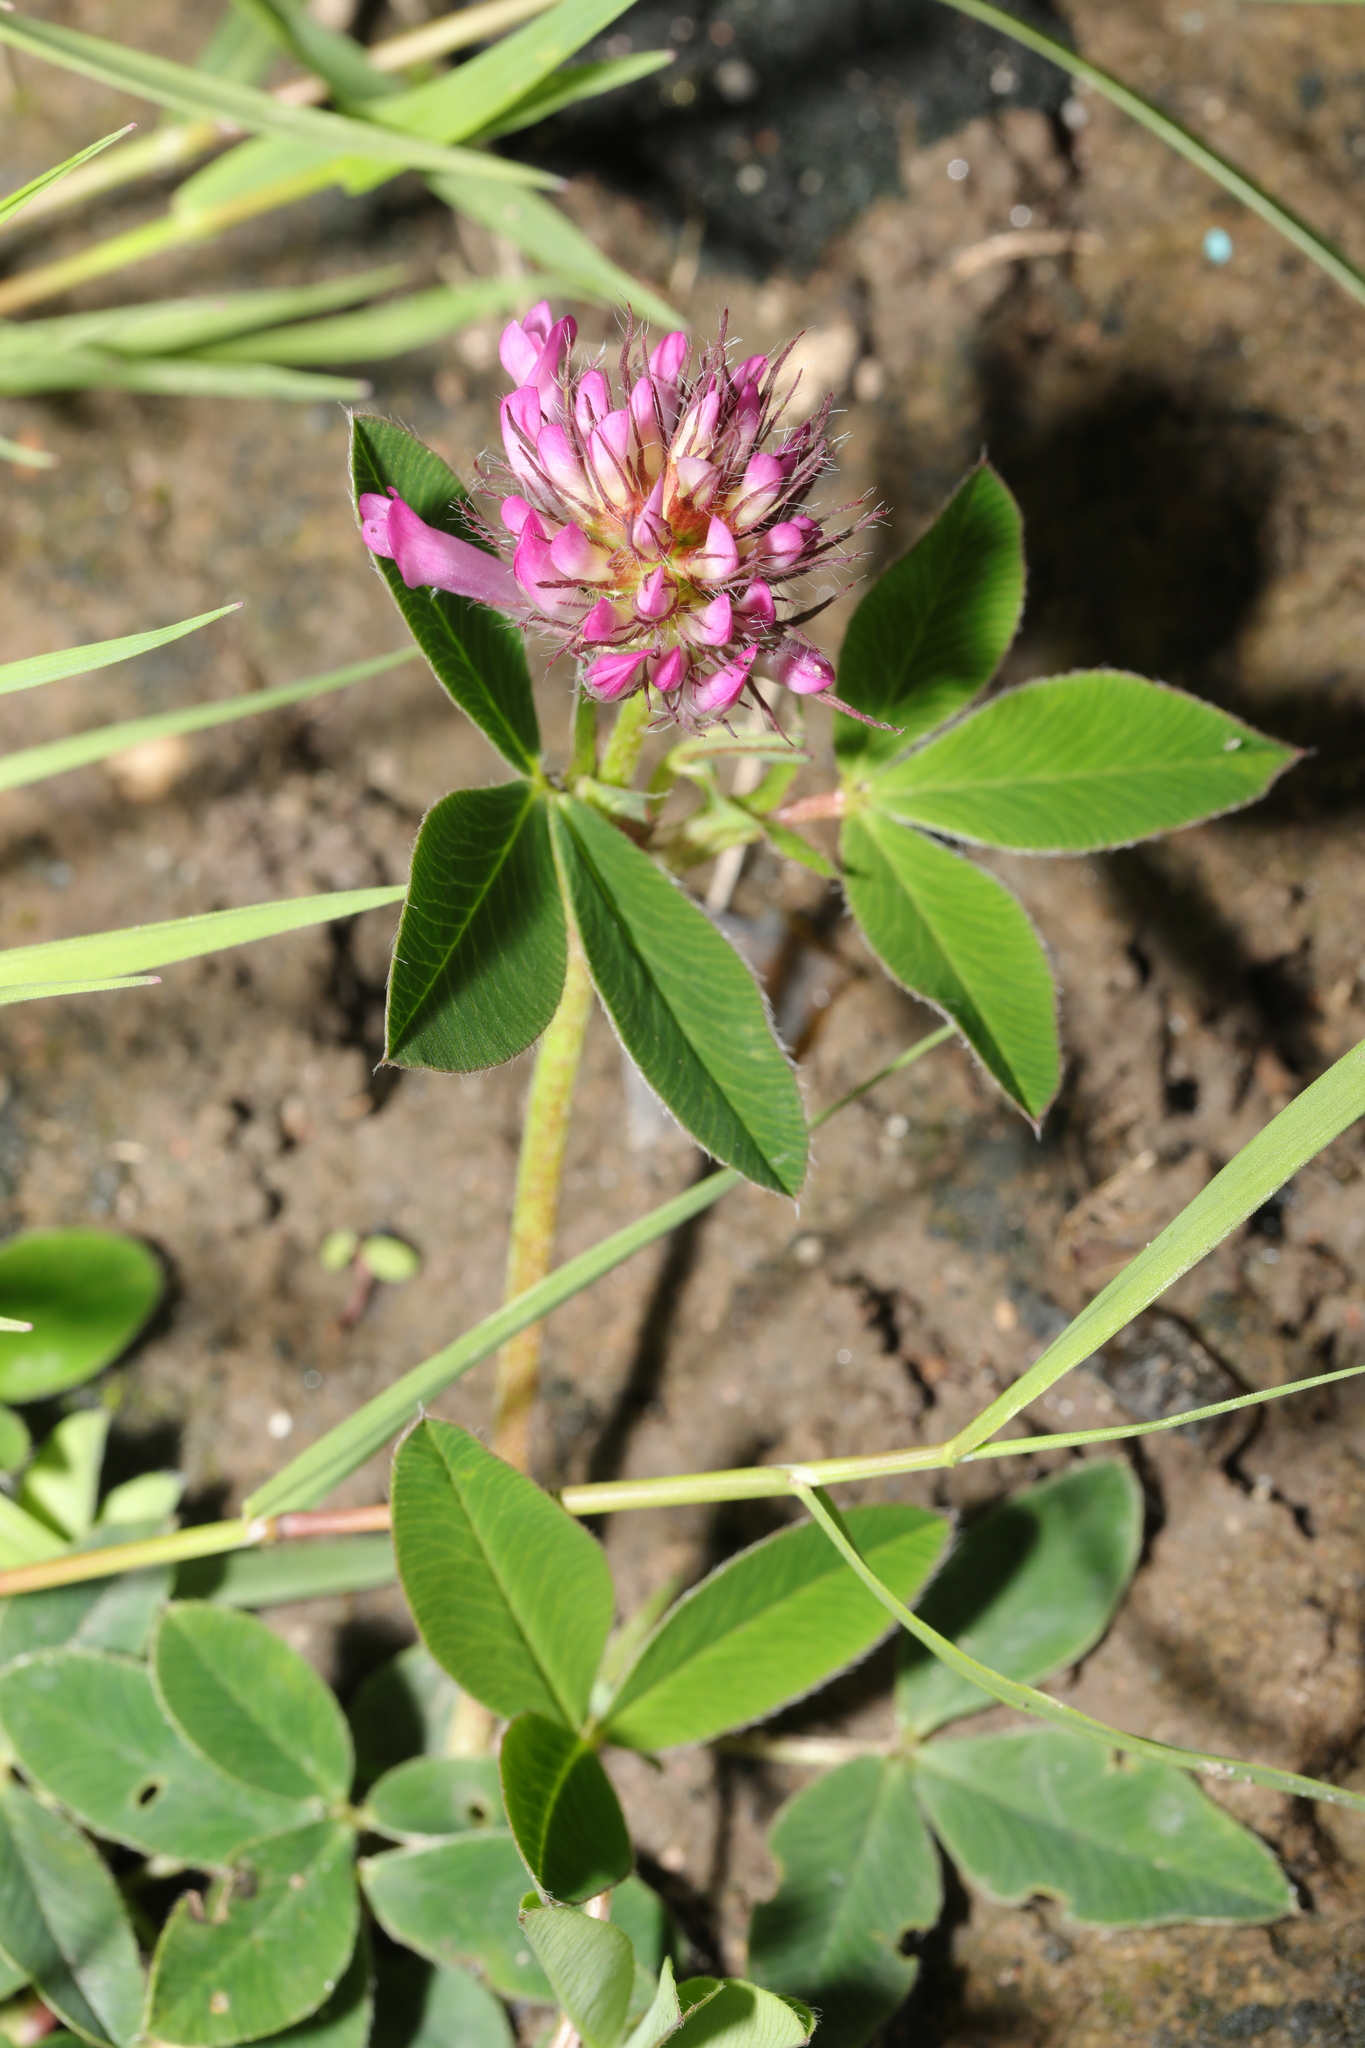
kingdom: Plantae
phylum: Tracheophyta
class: Magnoliopsida
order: Fabales
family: Fabaceae
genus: Trifolium
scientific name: Trifolium medium
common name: Zigzag clover
